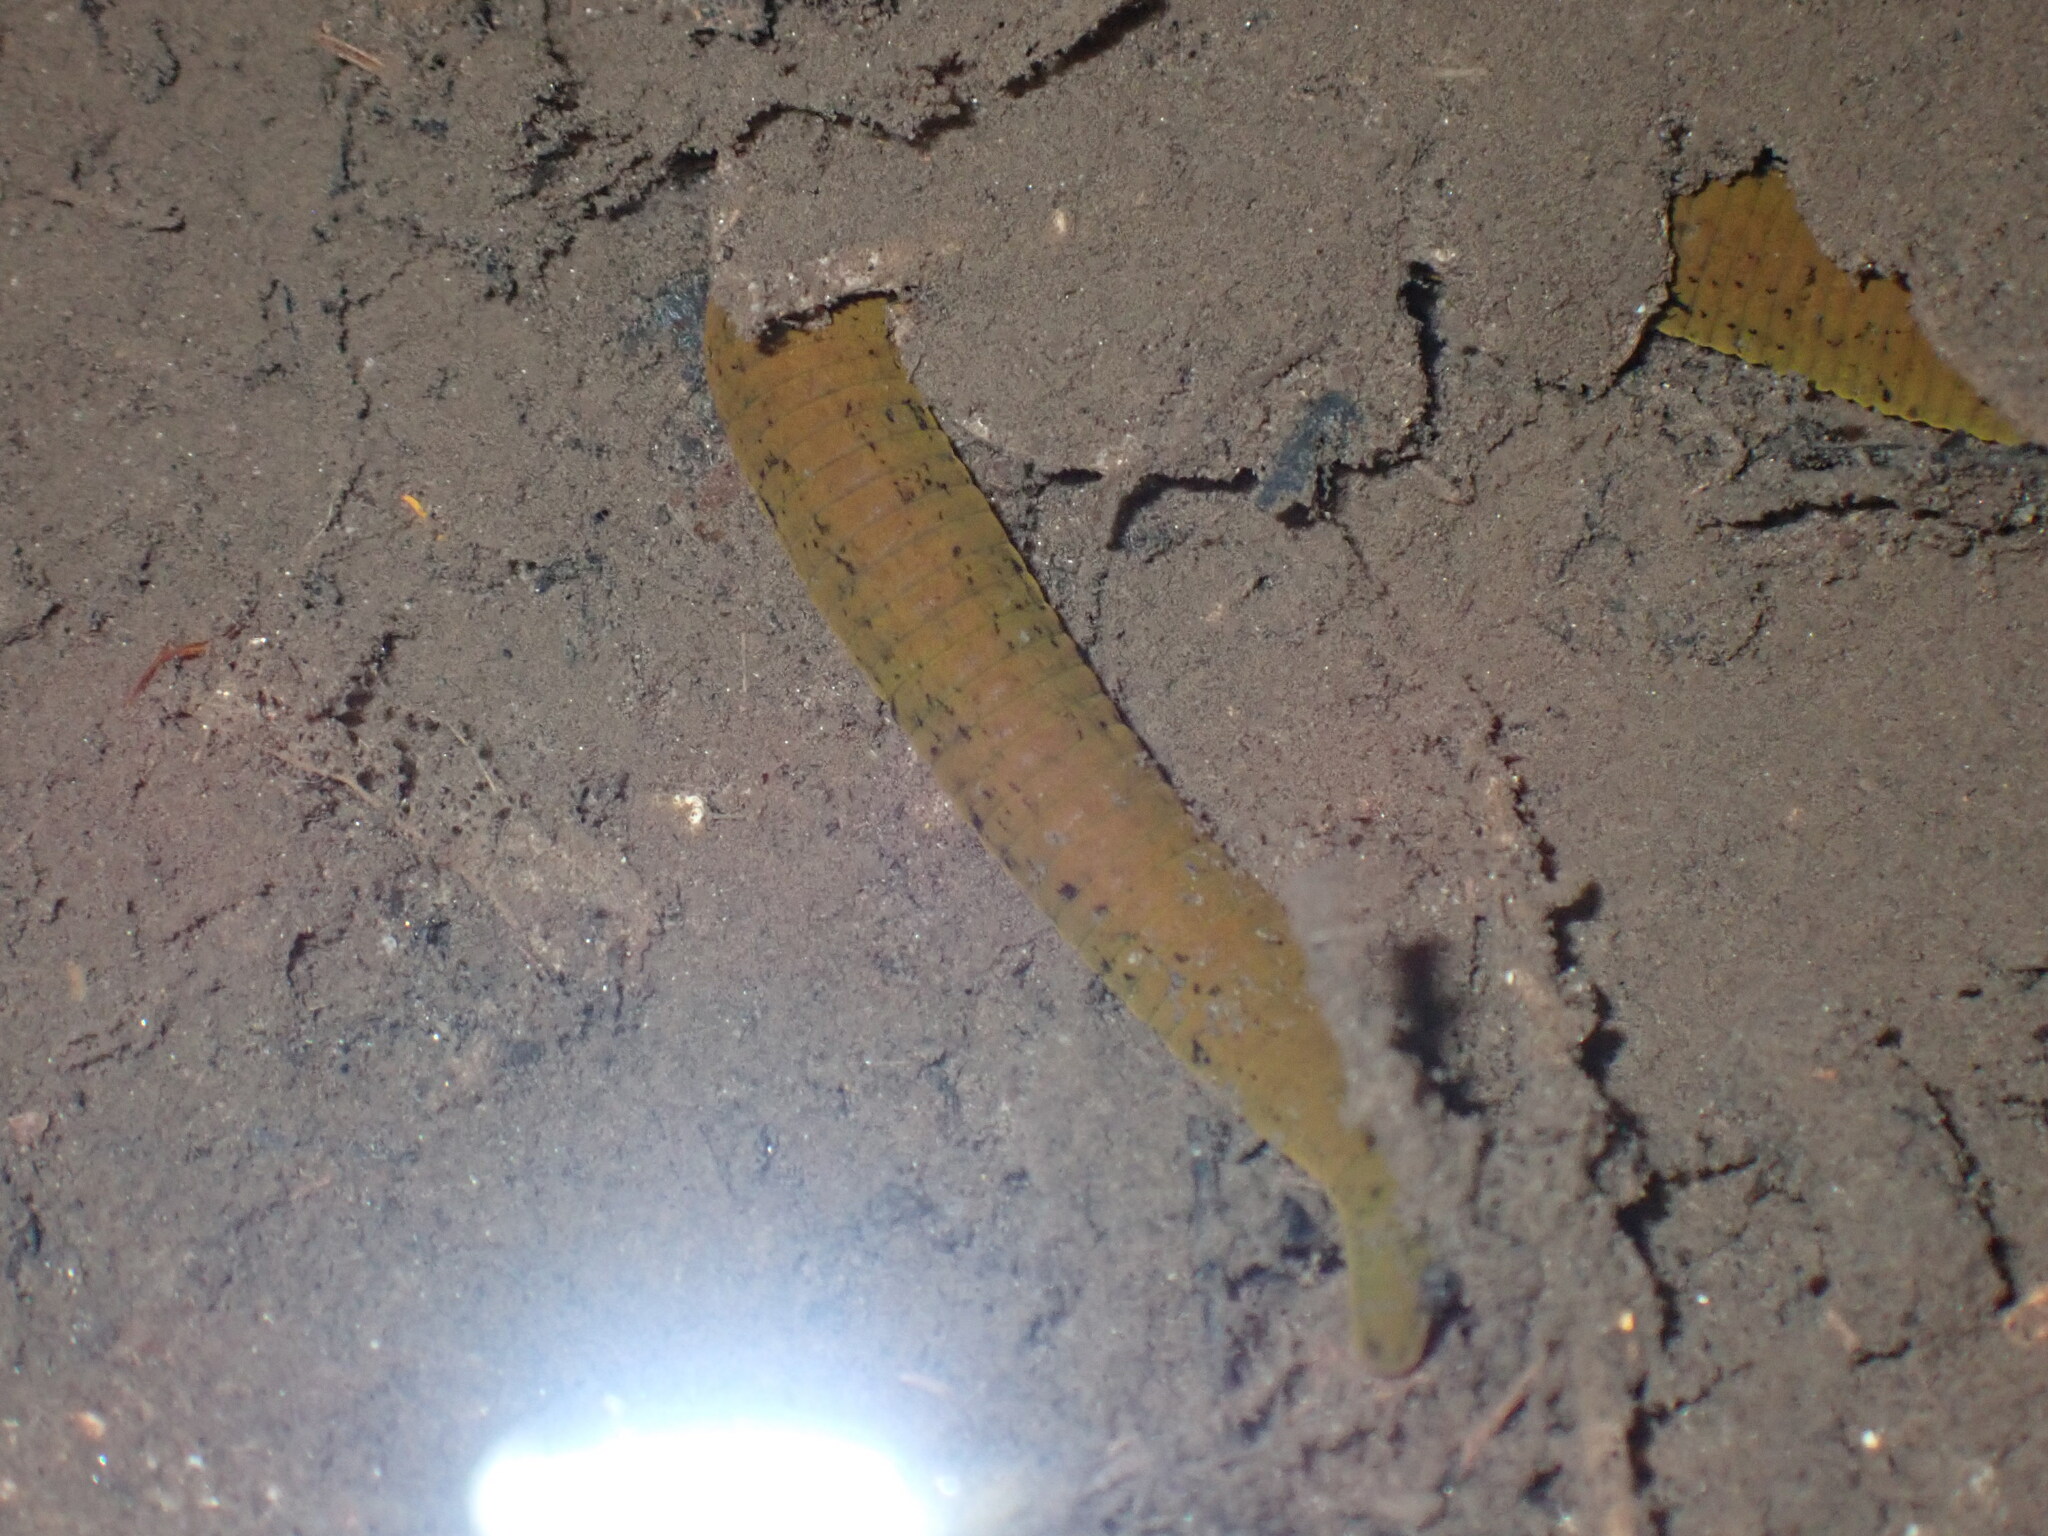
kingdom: Animalia
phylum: Annelida
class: Clitellata
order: Arhynchobdellida
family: Haemopidae
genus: Haemopis
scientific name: Haemopis sanguisuga
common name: Horse leech
